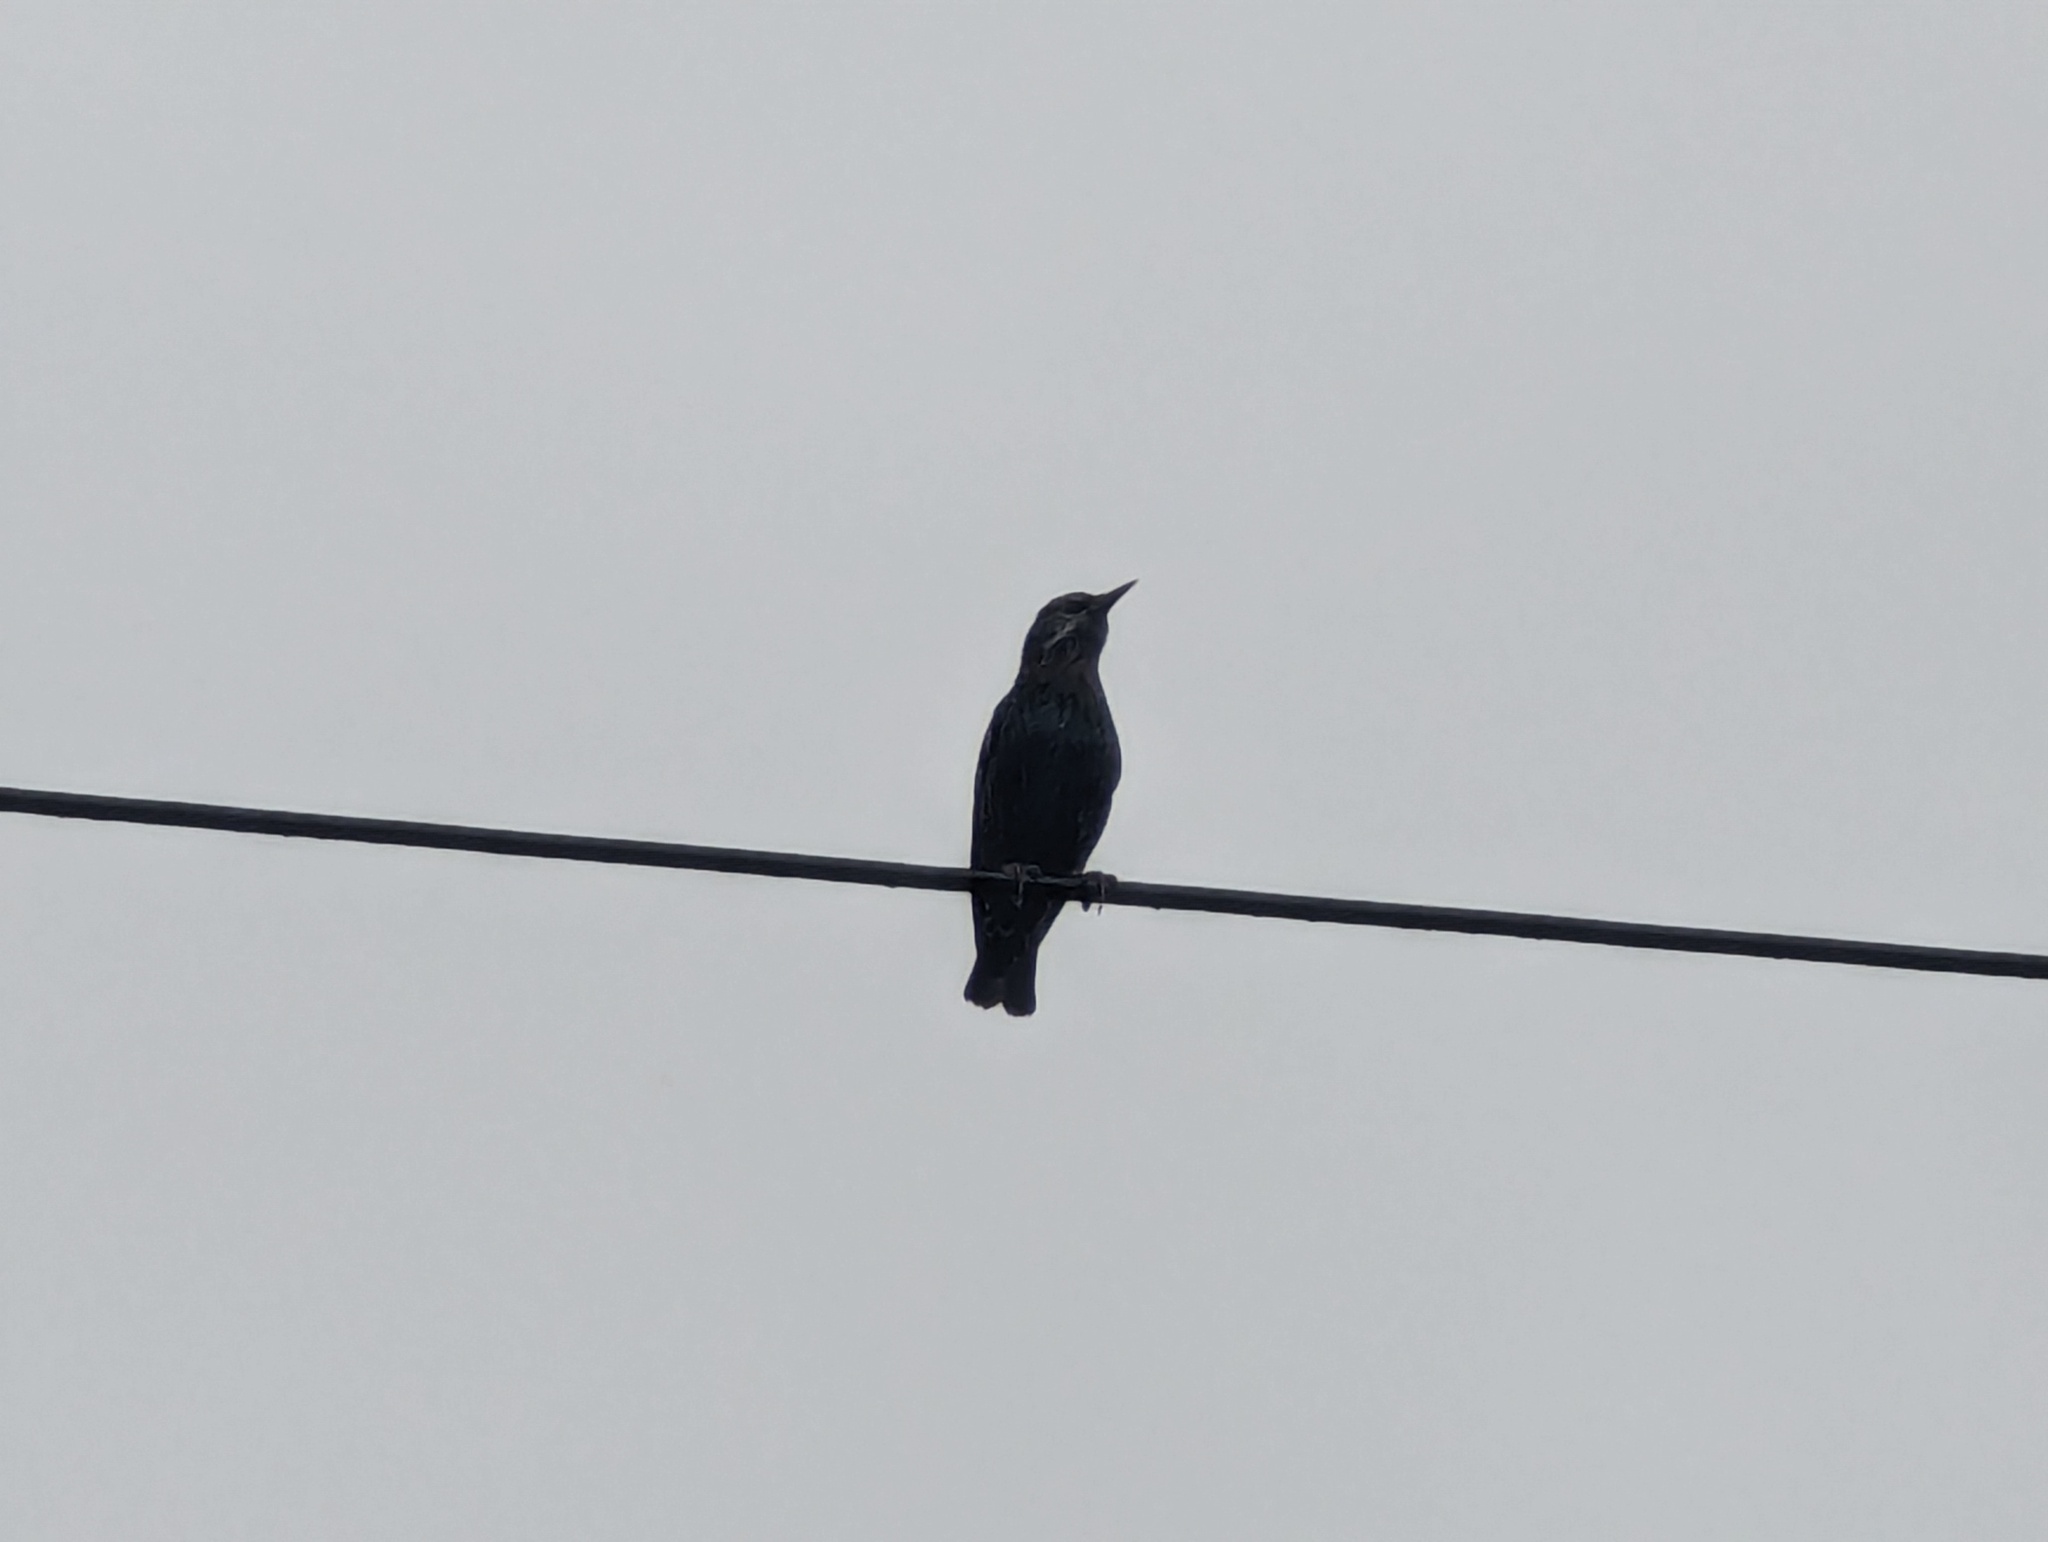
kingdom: Animalia
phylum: Chordata
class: Aves
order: Passeriformes
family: Sturnidae
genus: Sturnus
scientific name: Sturnus vulgaris
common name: Common starling
